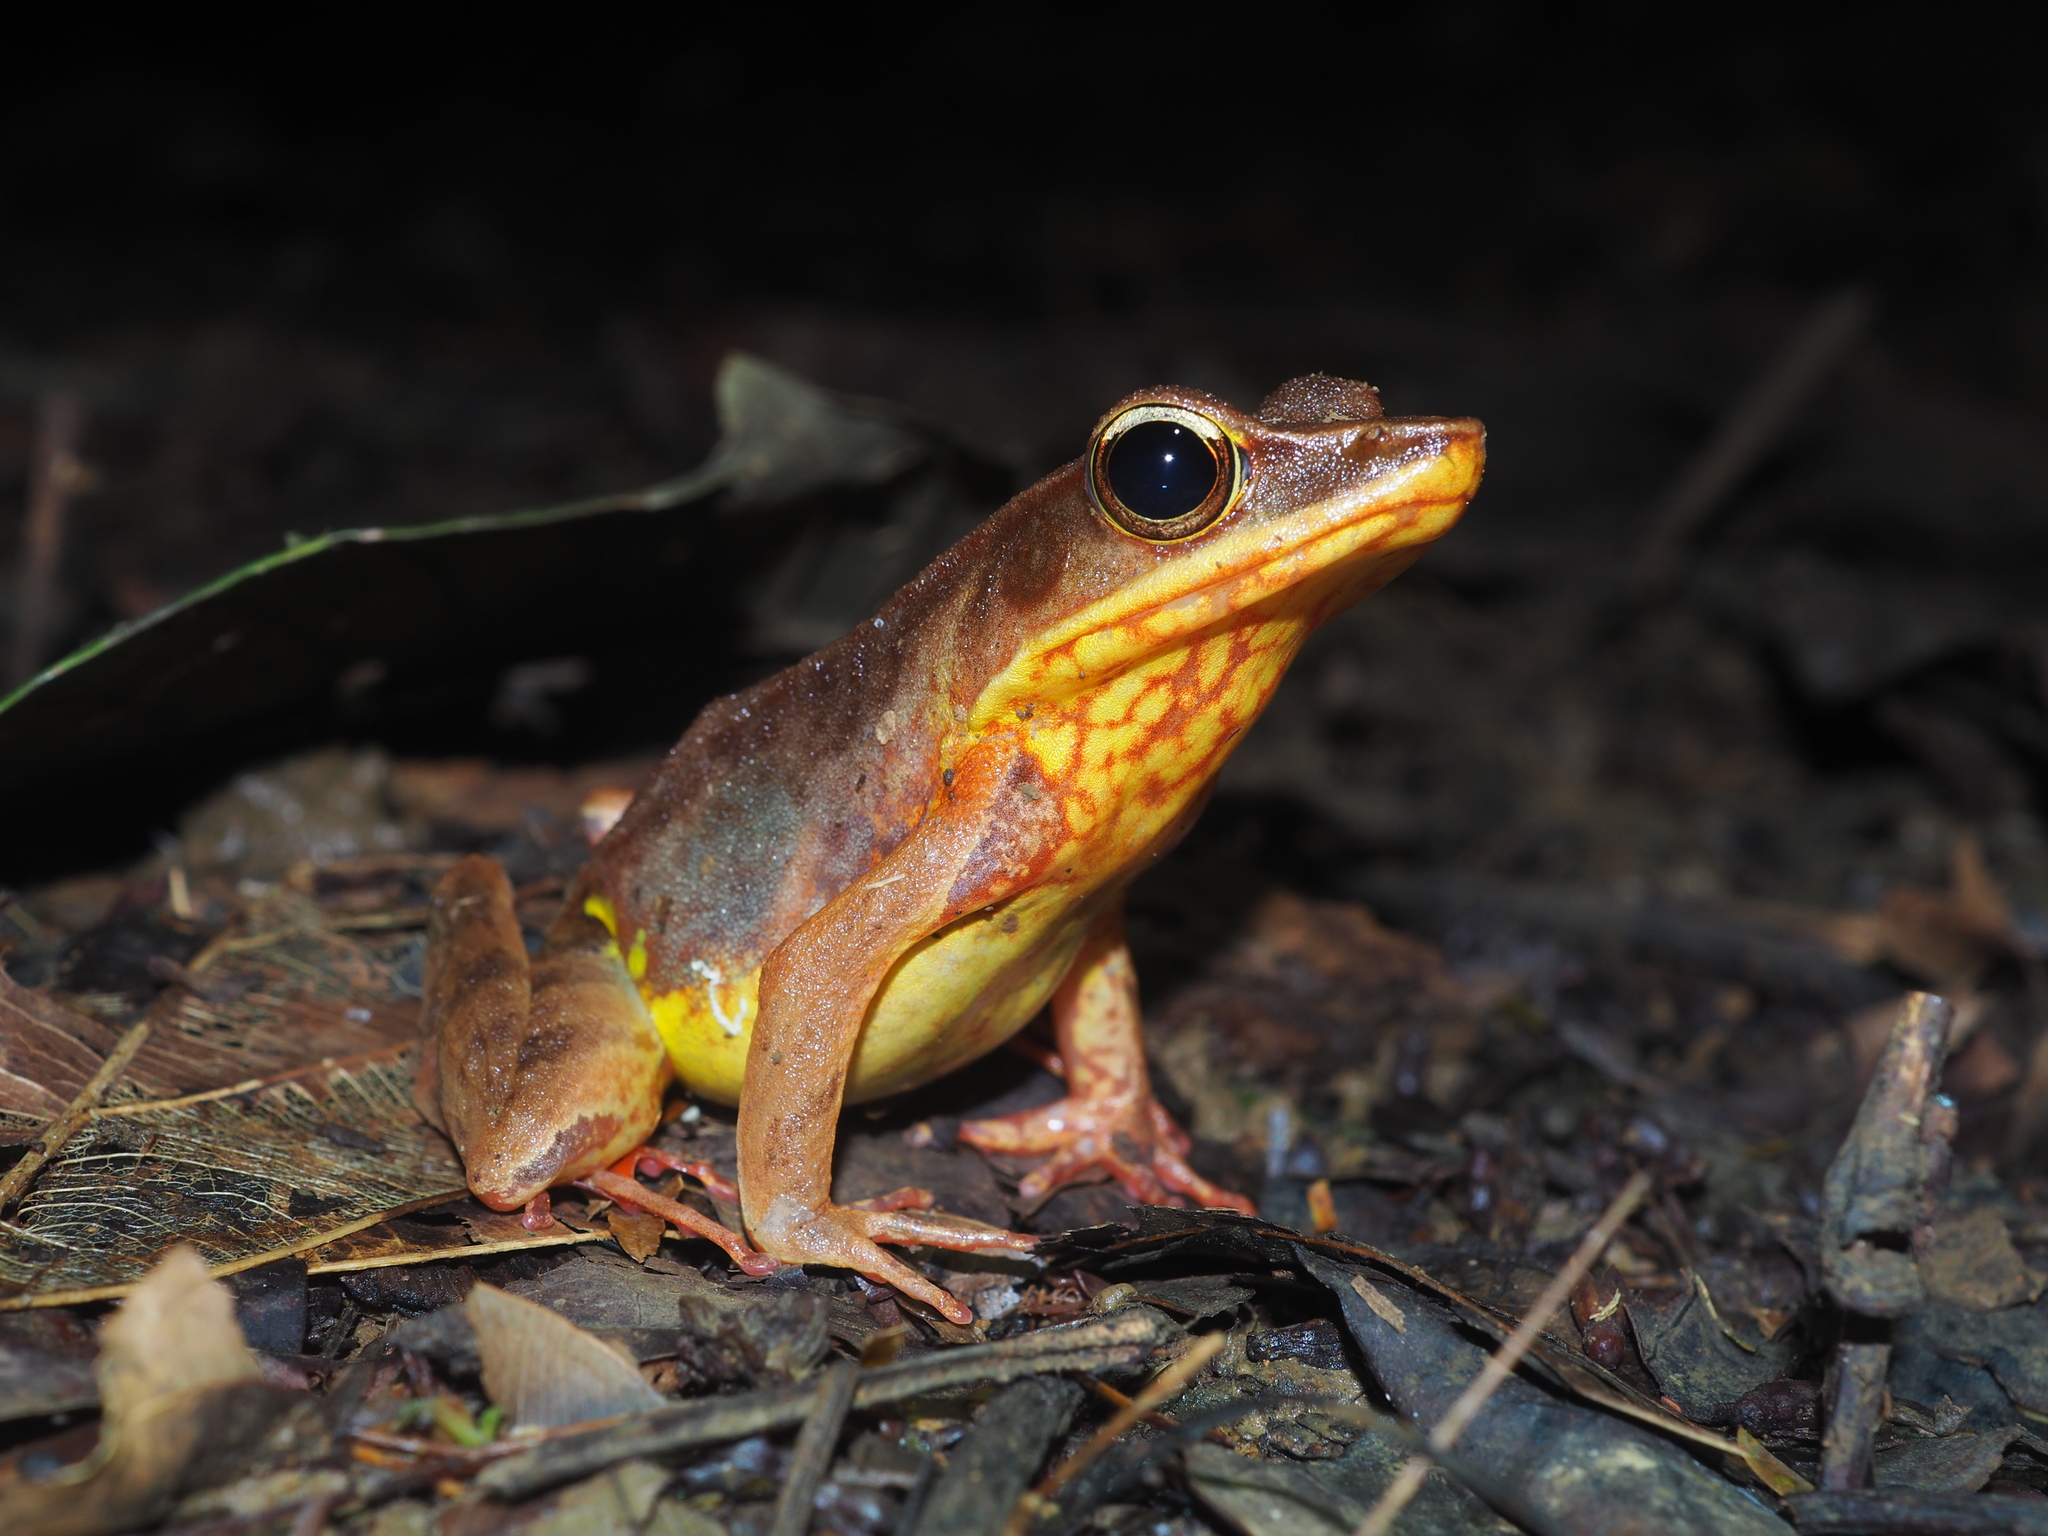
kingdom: Animalia
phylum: Chordata
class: Amphibia
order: Anura
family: Ranidae
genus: Lithobates
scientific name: Lithobates warszewitschii
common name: Warszewitsch's frog
